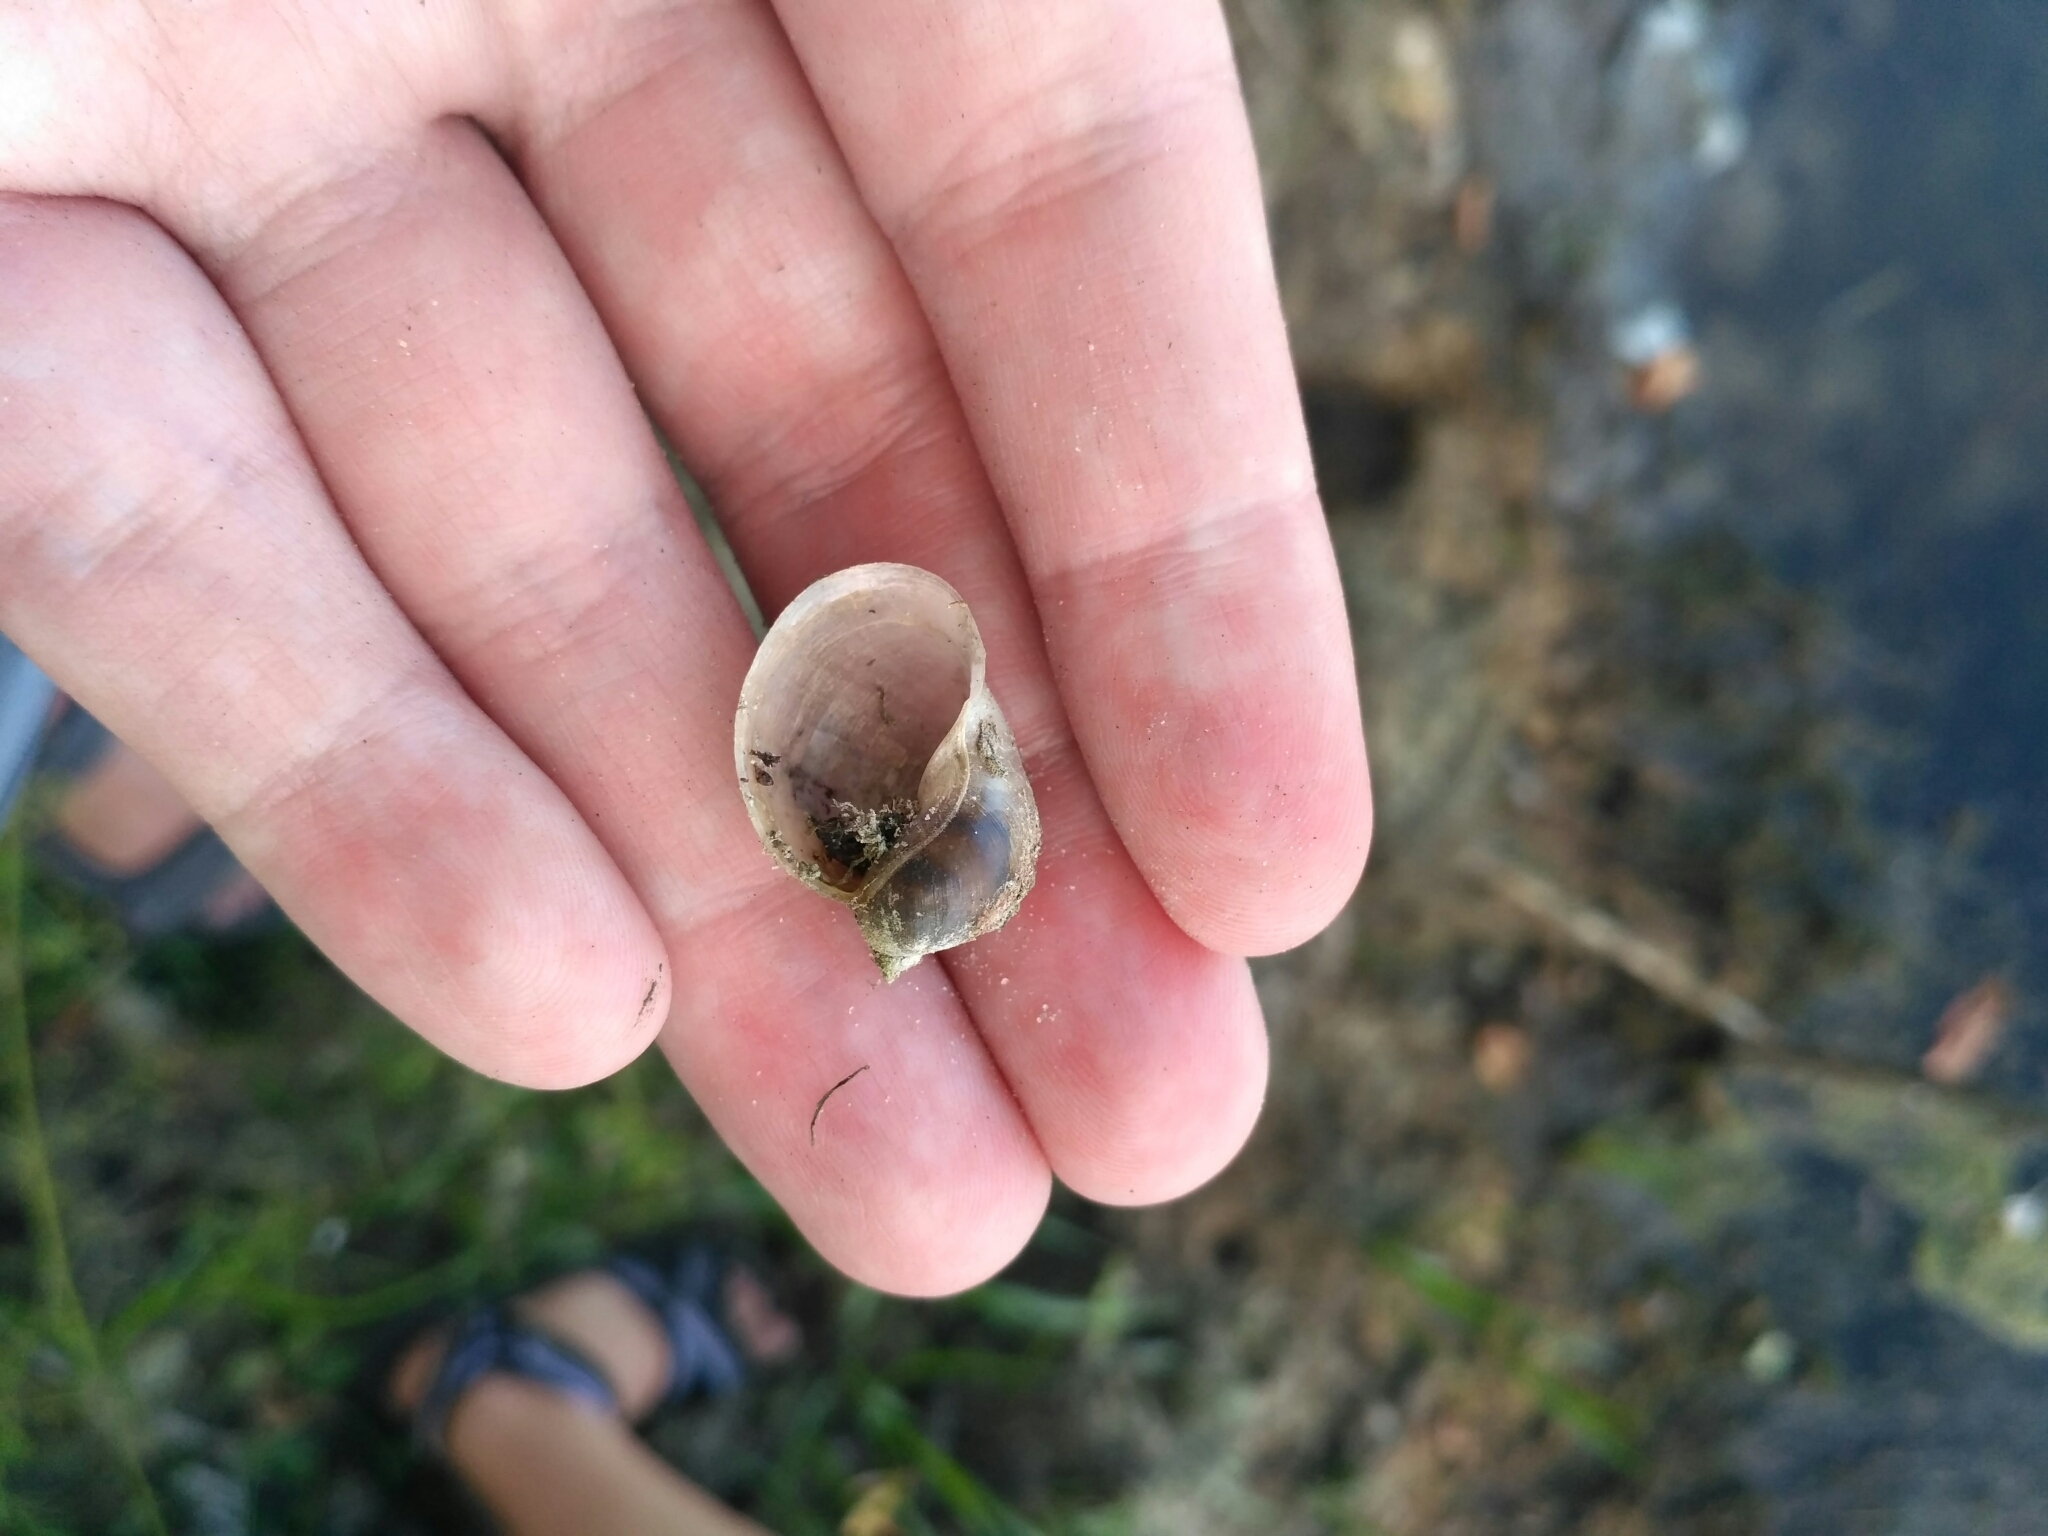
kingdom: Animalia
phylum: Mollusca
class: Gastropoda
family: Lymnaeidae
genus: Radix
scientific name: Radix auricularia
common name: Ear pond snail
